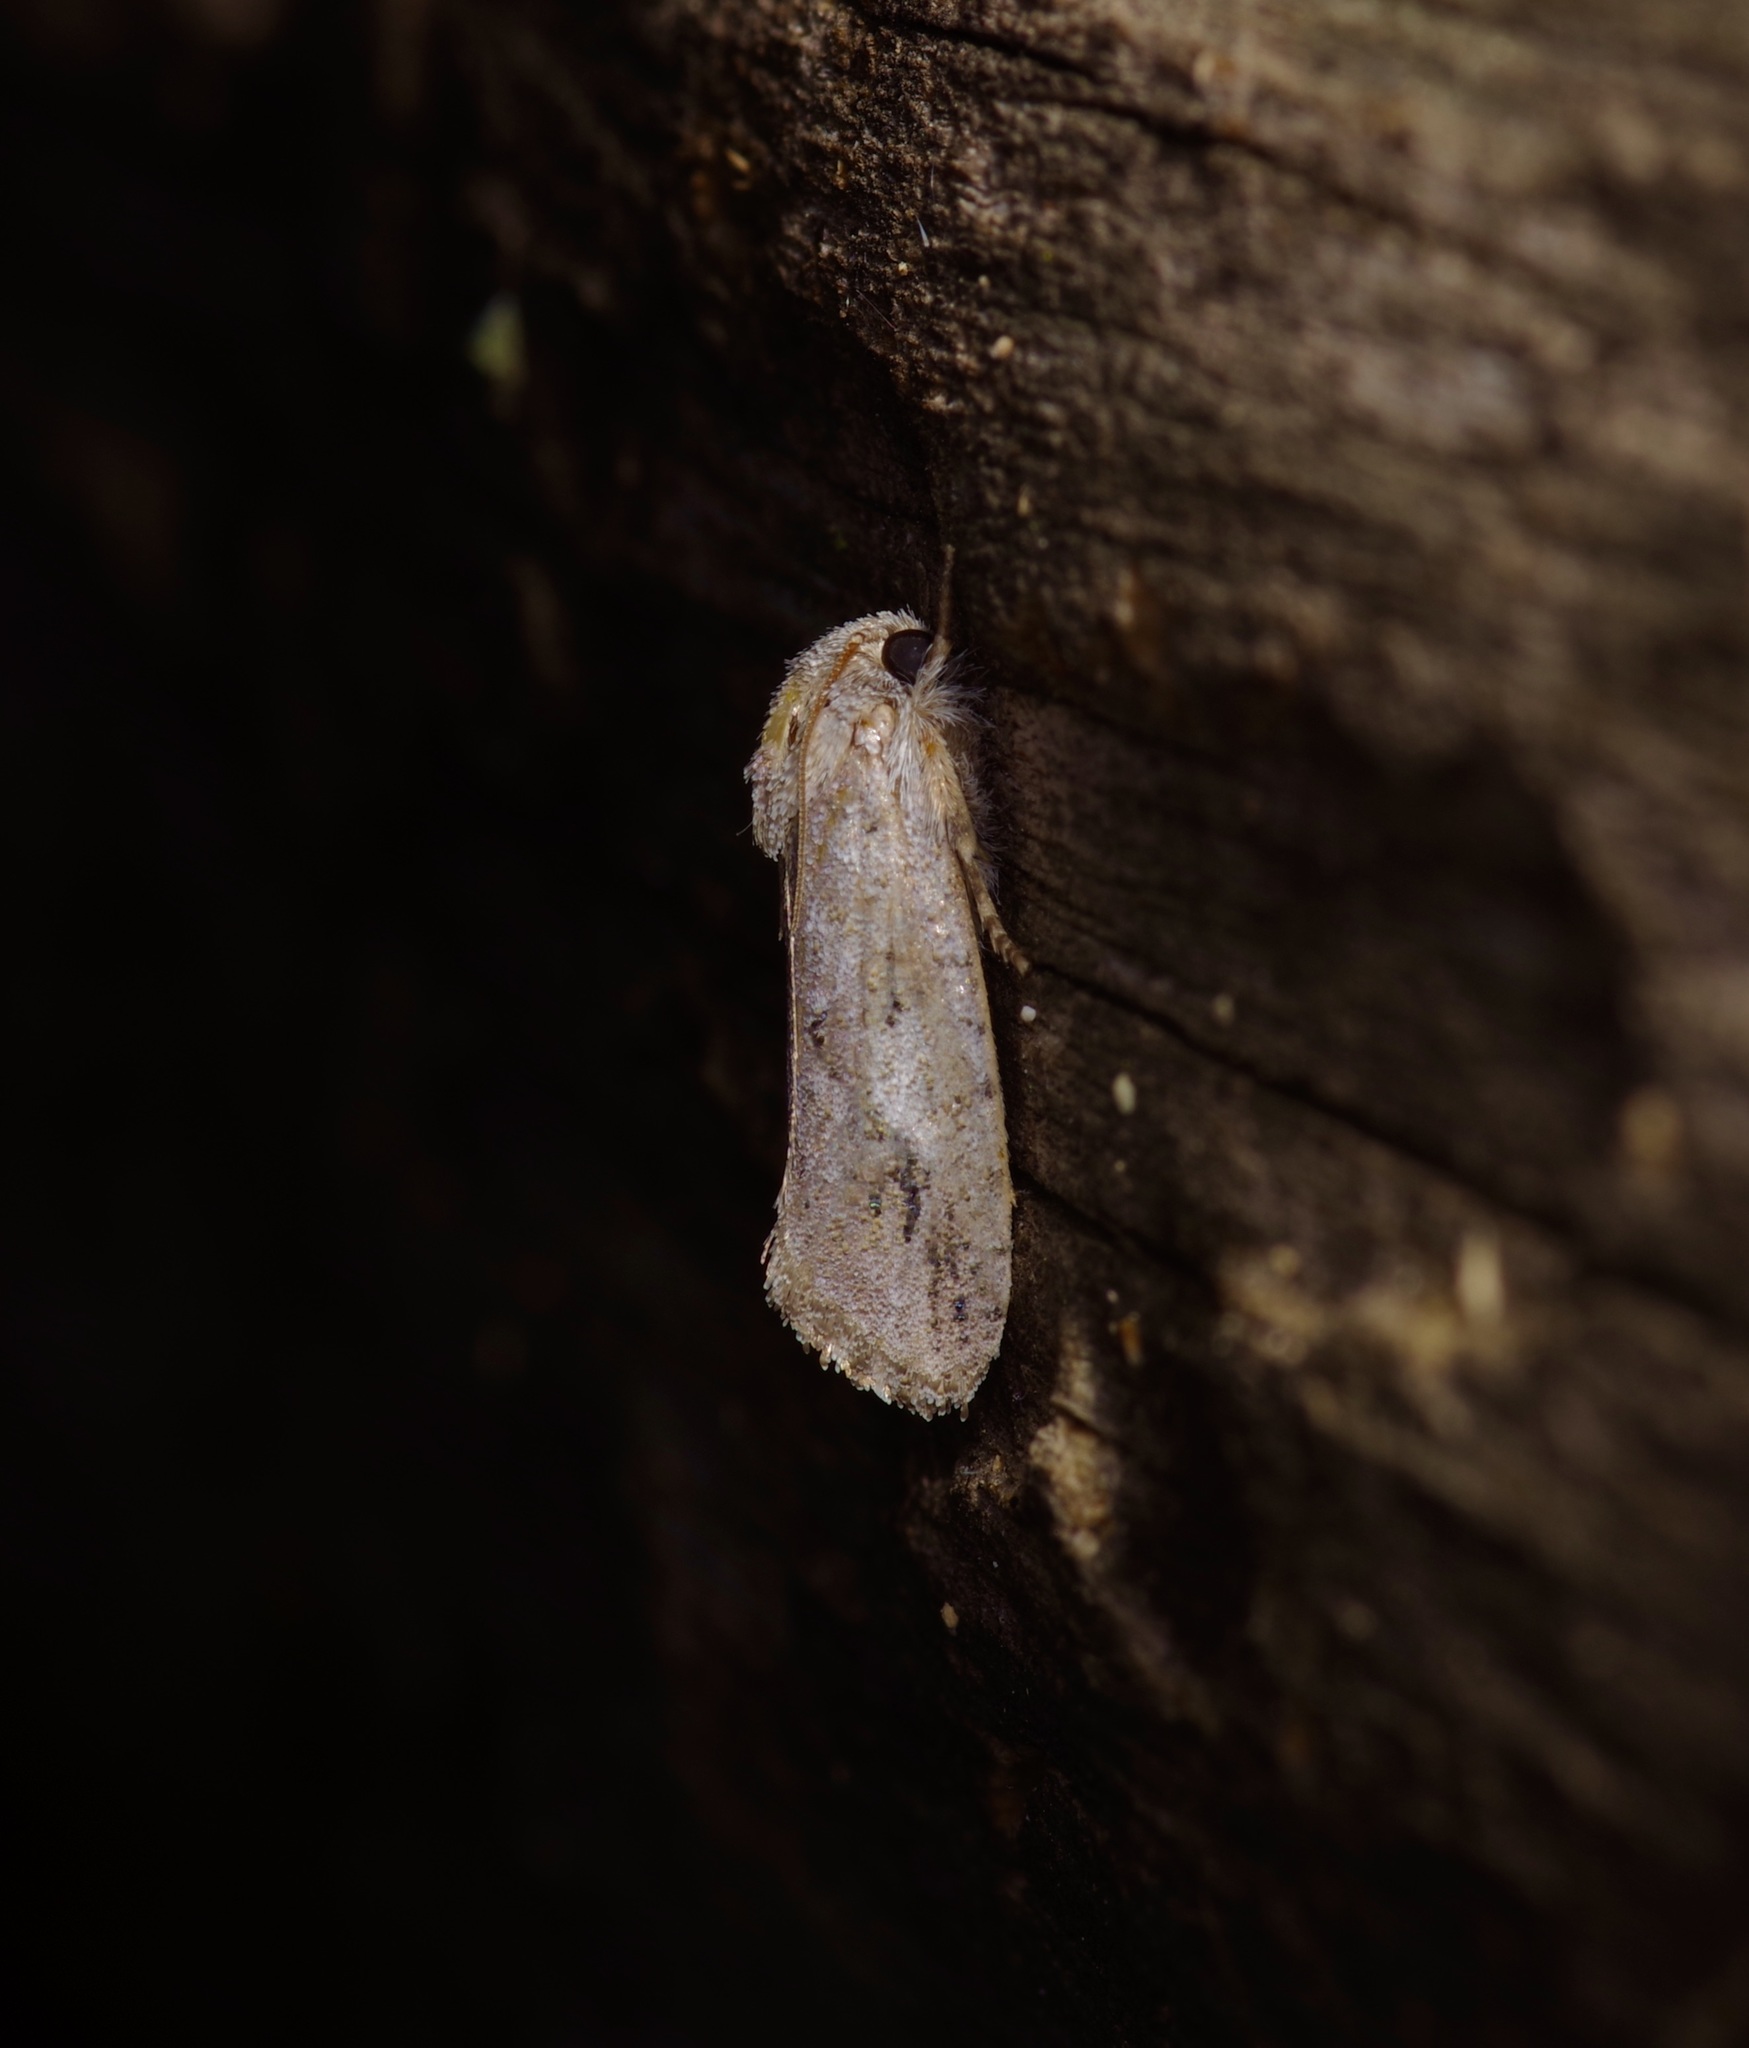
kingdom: Animalia
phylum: Arthropoda
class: Insecta
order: Lepidoptera
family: Tineidae
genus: Acrolophus
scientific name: Acrolophus griseus
